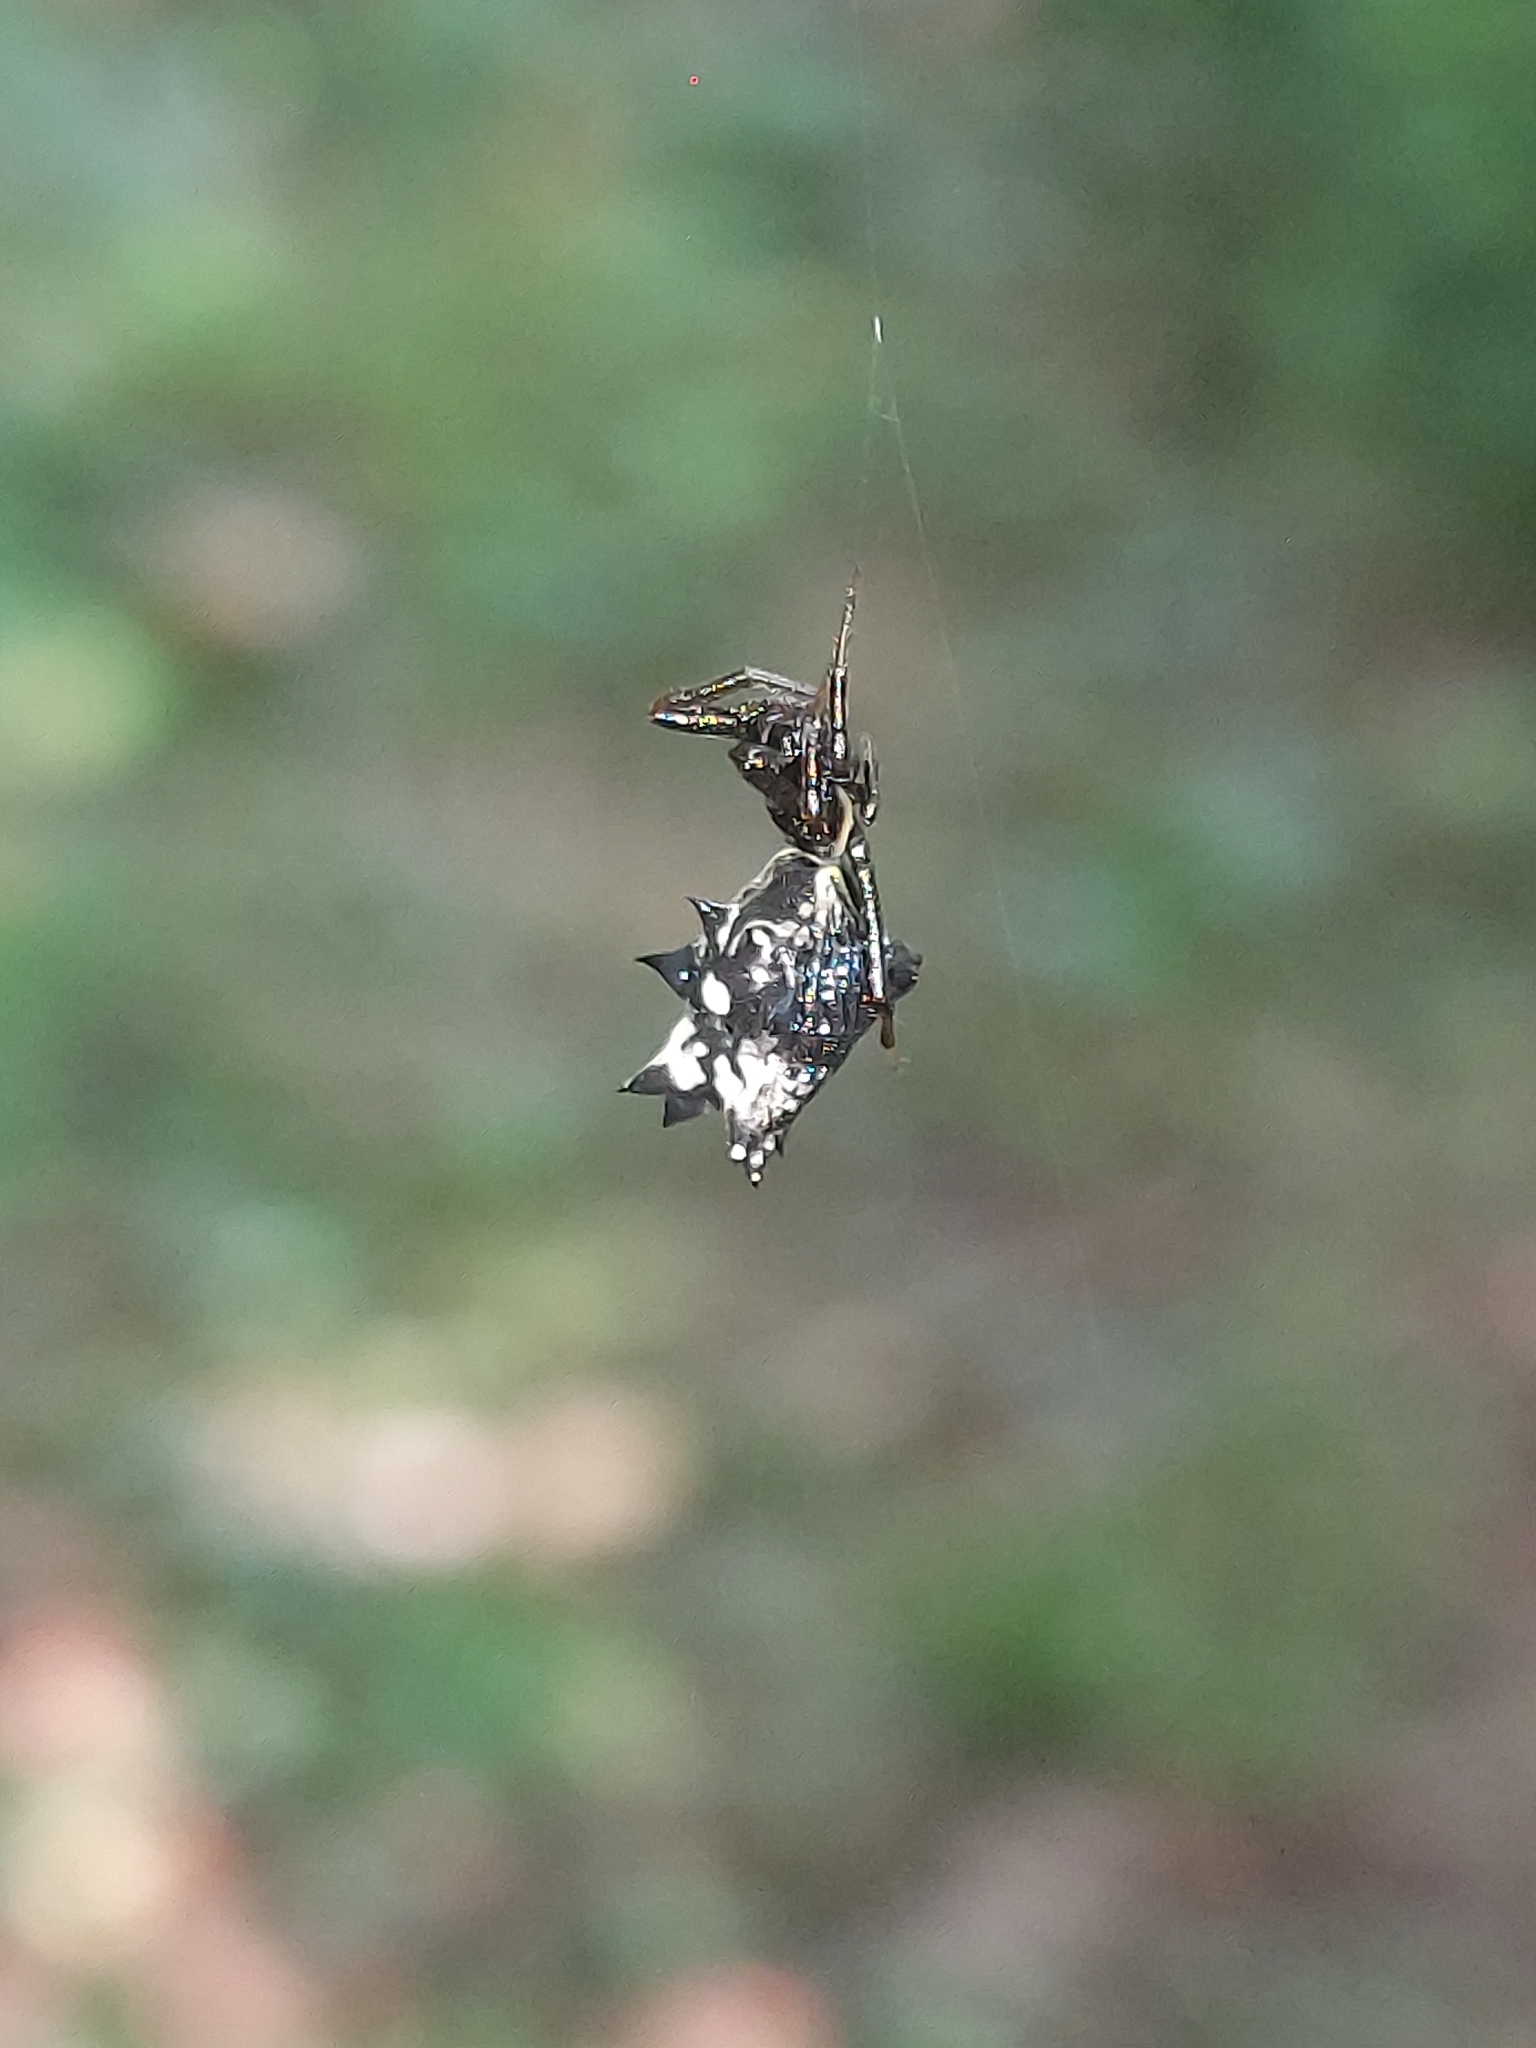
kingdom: Animalia
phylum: Arthropoda
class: Arachnida
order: Araneae
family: Araneidae
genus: Micrathena
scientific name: Micrathena gracilis
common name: Orb weavers
